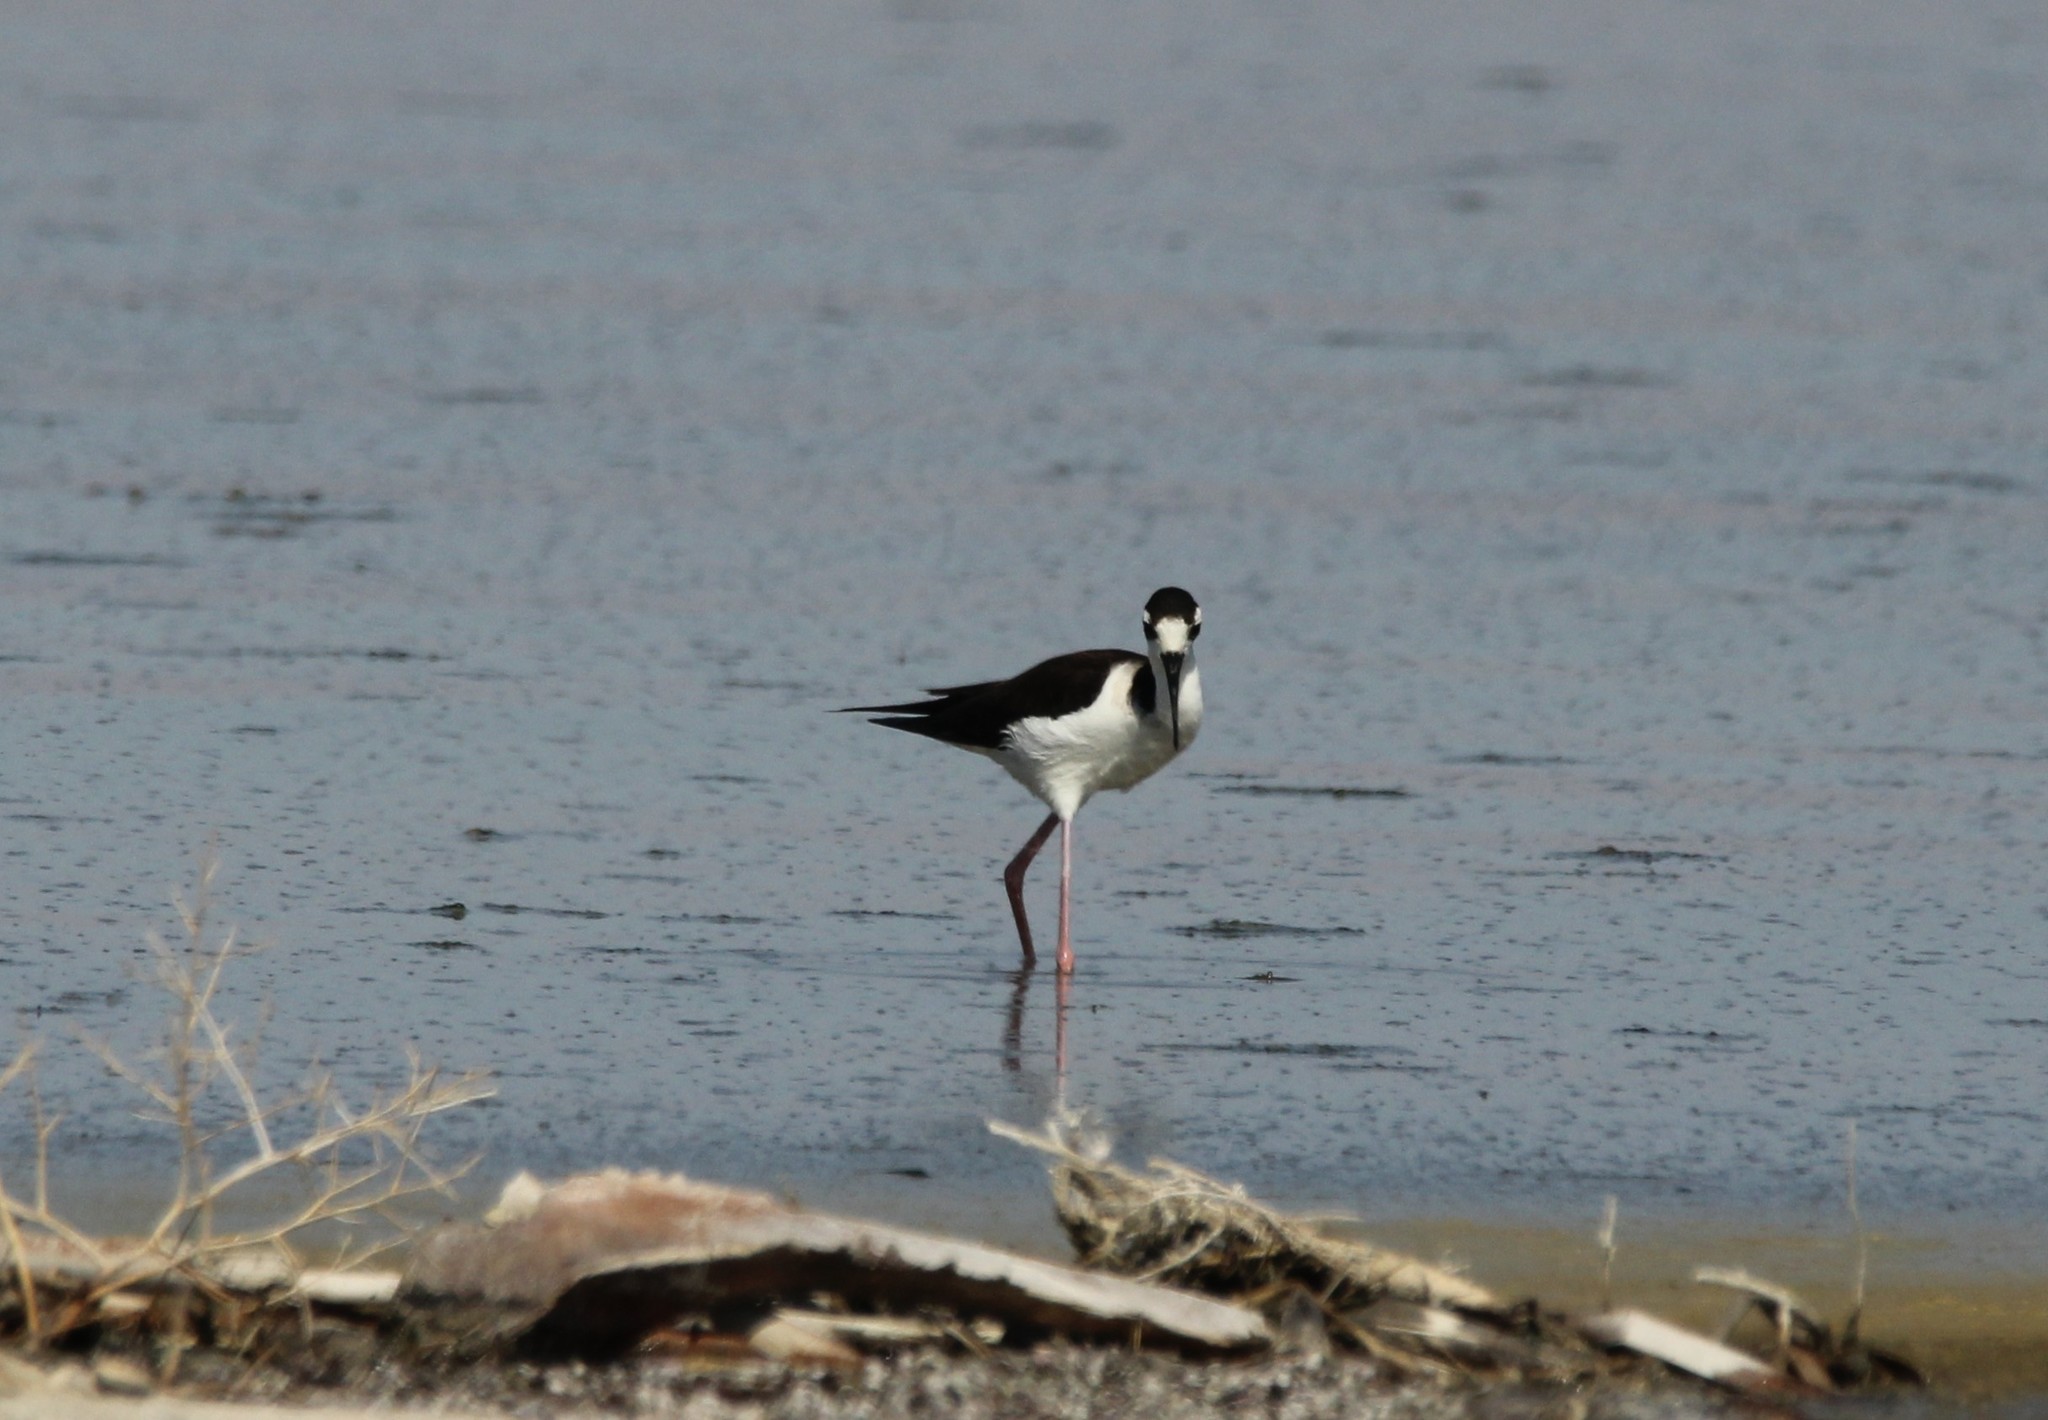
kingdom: Animalia
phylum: Chordata
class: Aves
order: Charadriiformes
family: Recurvirostridae
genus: Himantopus
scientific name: Himantopus mexicanus
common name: Black-necked stilt
